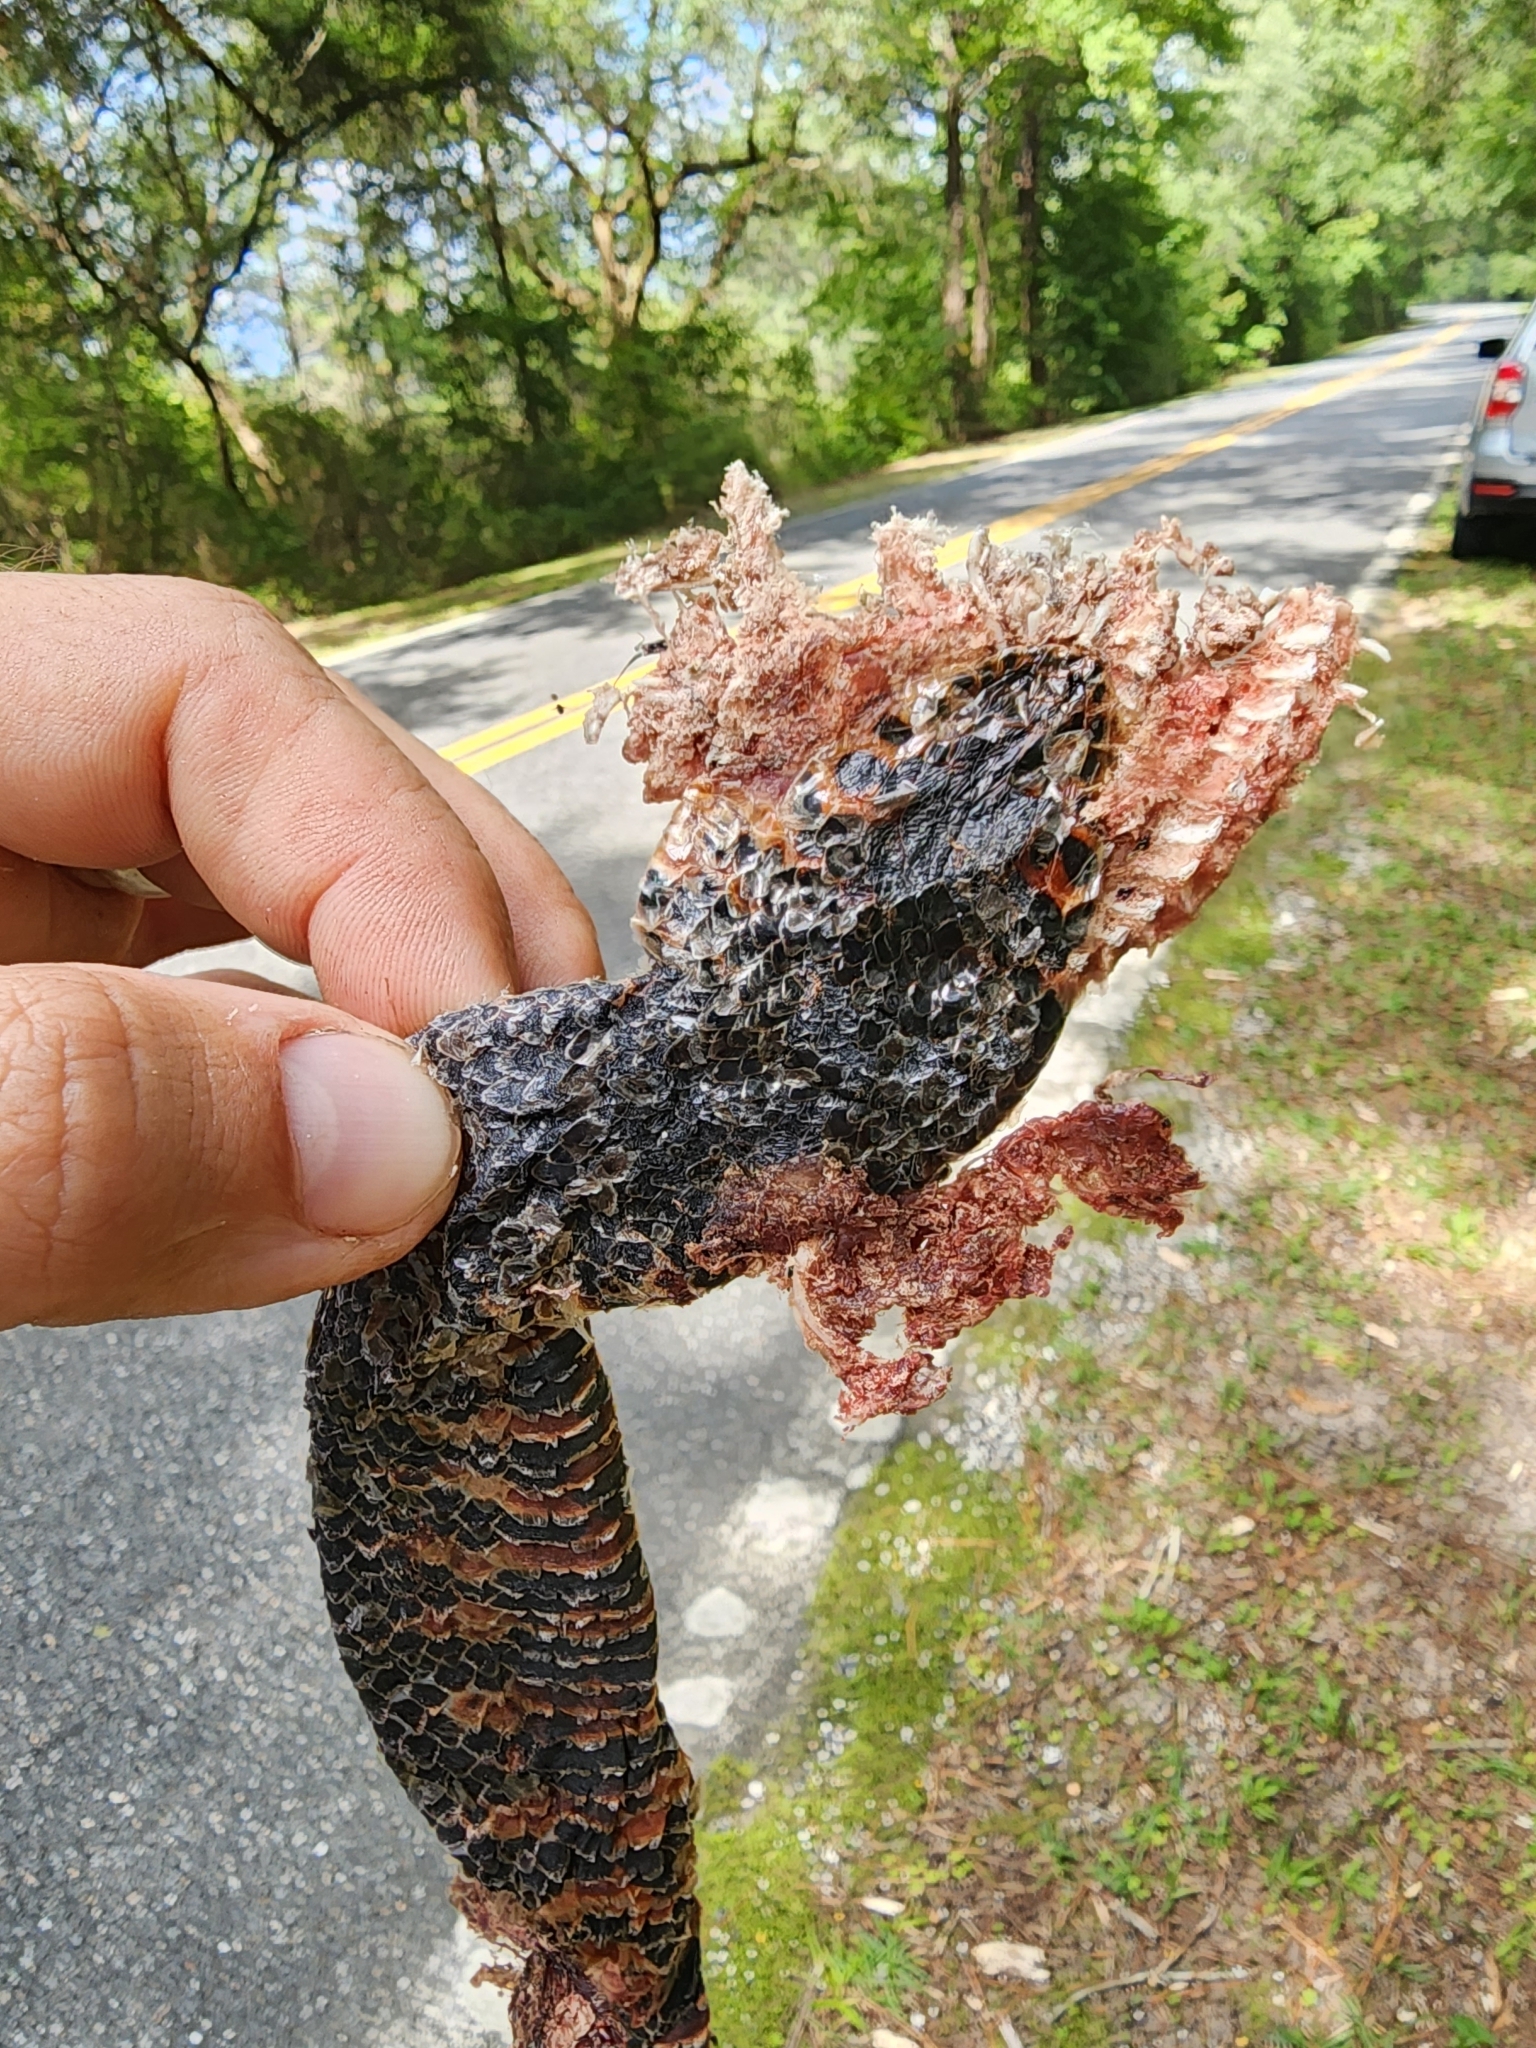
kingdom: Animalia
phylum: Chordata
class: Squamata
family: Colubridae
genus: Farancia
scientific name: Farancia abacura
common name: Mud snake
